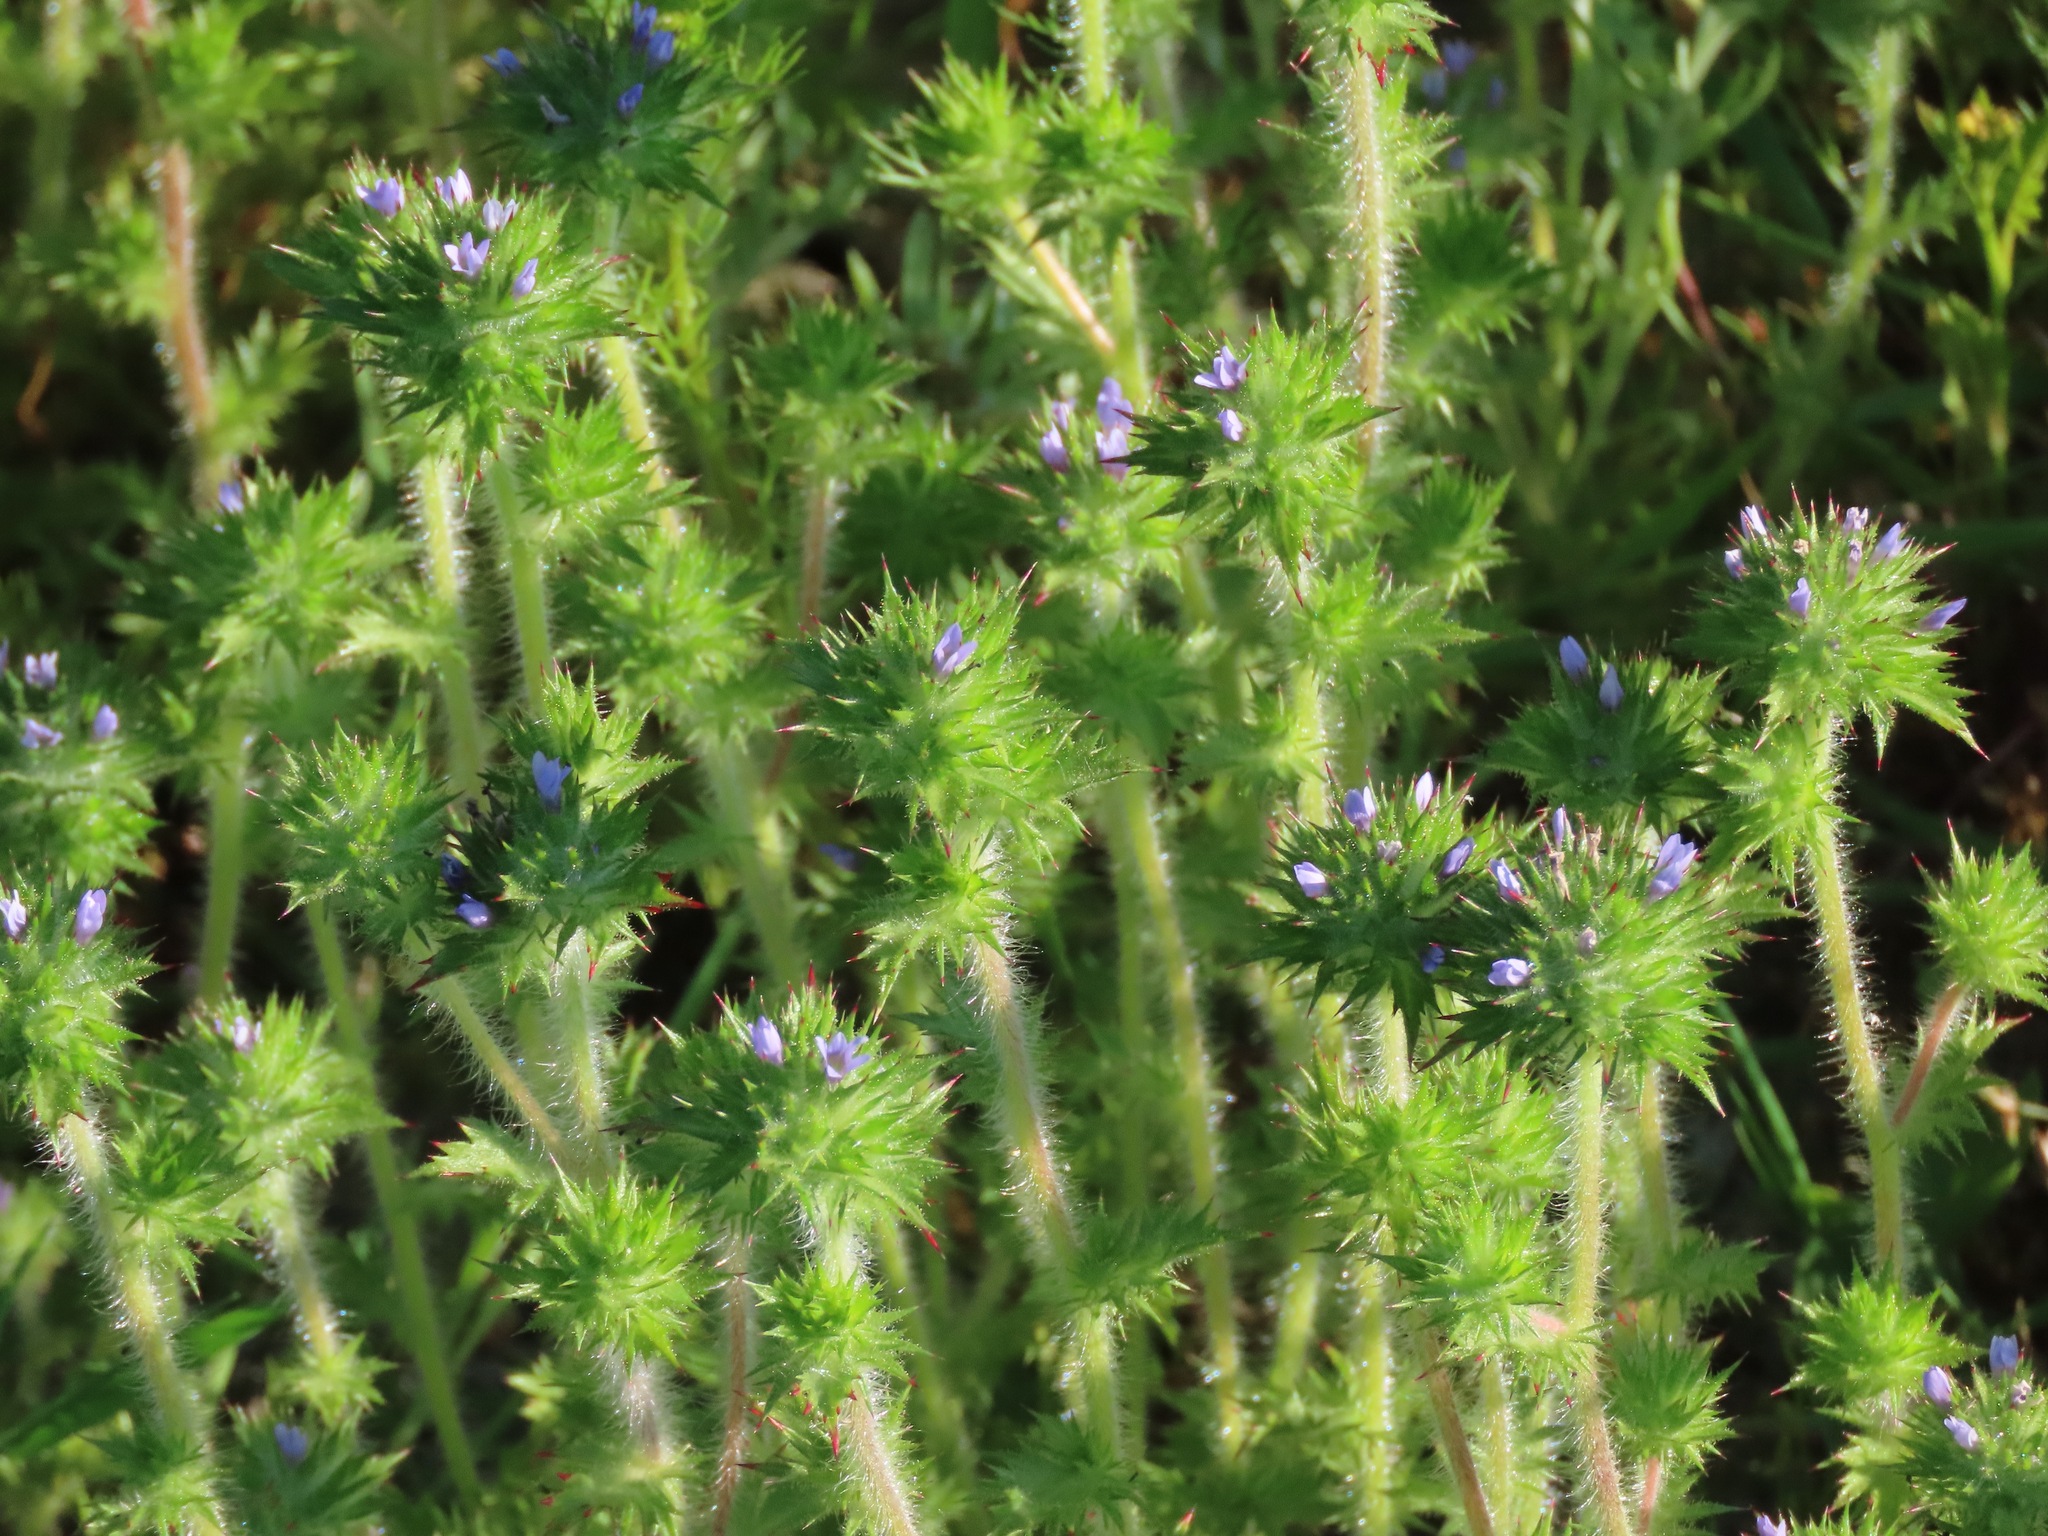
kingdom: Plantae
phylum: Tracheophyta
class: Magnoliopsida
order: Ericales
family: Polemoniaceae
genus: Navarretia
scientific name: Navarretia squarrosa
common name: Skunkweed
